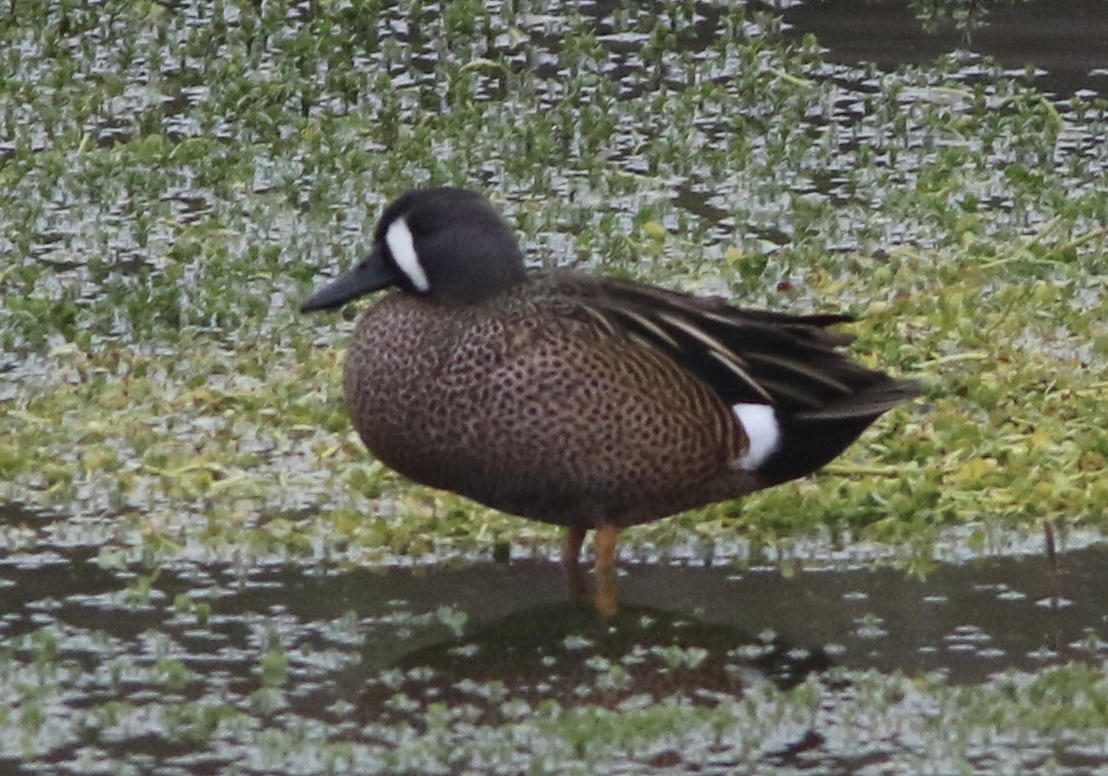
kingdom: Animalia
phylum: Chordata
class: Aves
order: Anseriformes
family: Anatidae
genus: Spatula
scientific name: Spatula discors
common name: Blue-winged teal
